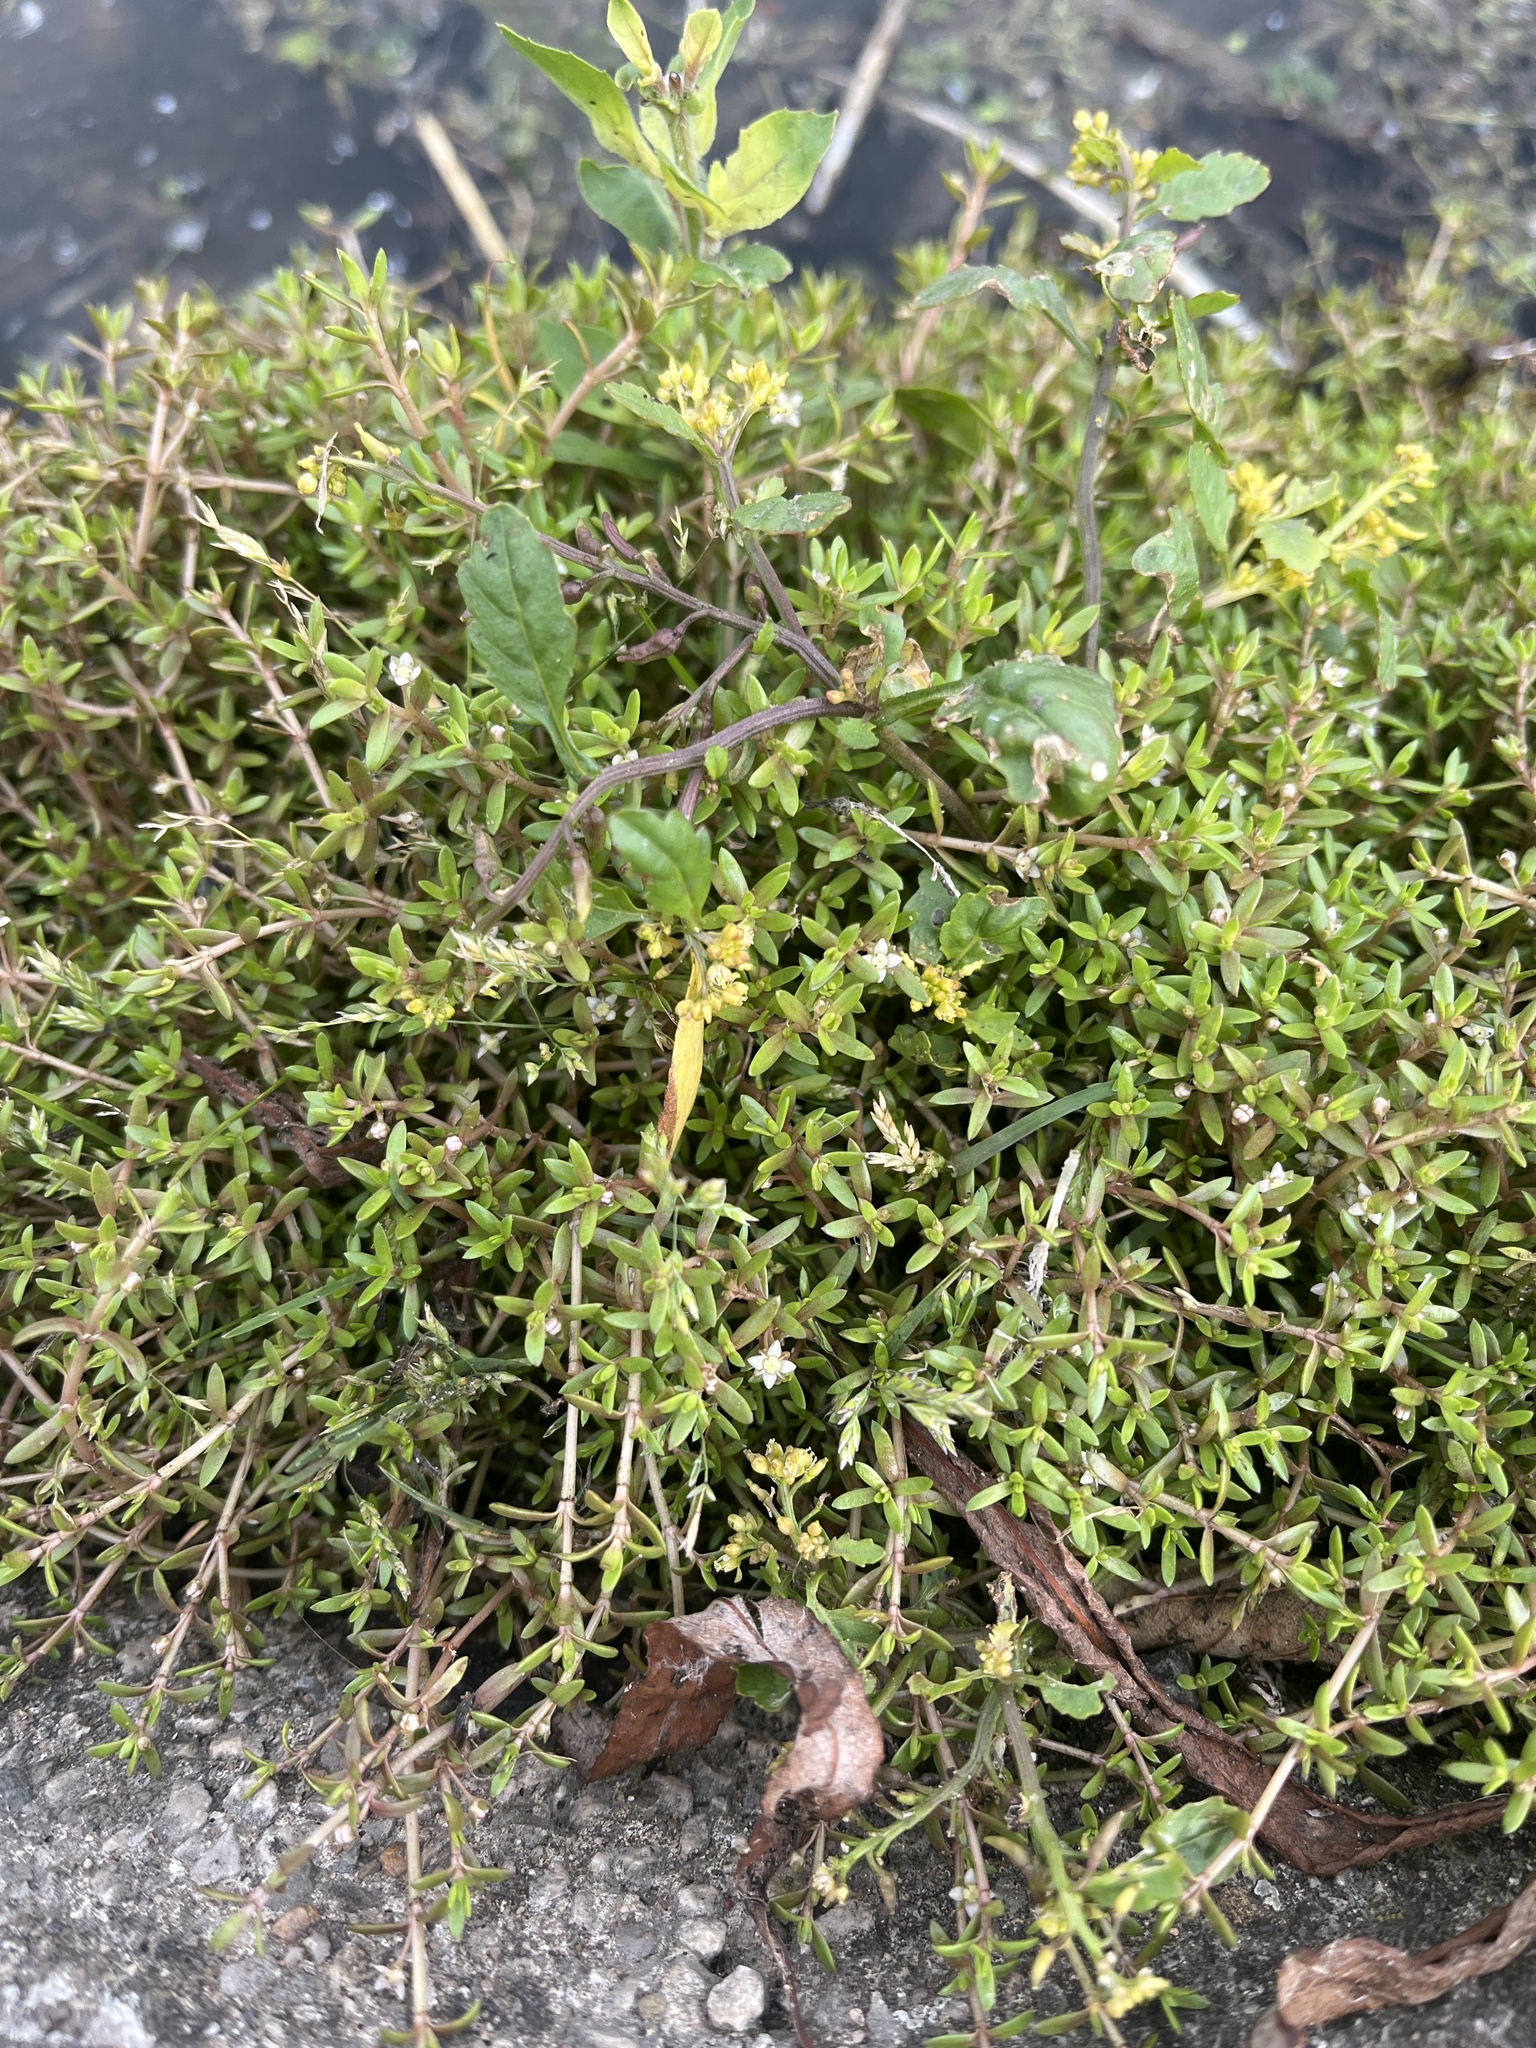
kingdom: Plantae
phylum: Tracheophyta
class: Magnoliopsida
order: Saxifragales
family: Crassulaceae
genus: Crassula
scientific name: Crassula helmsii
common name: New zealand pigmyweed
